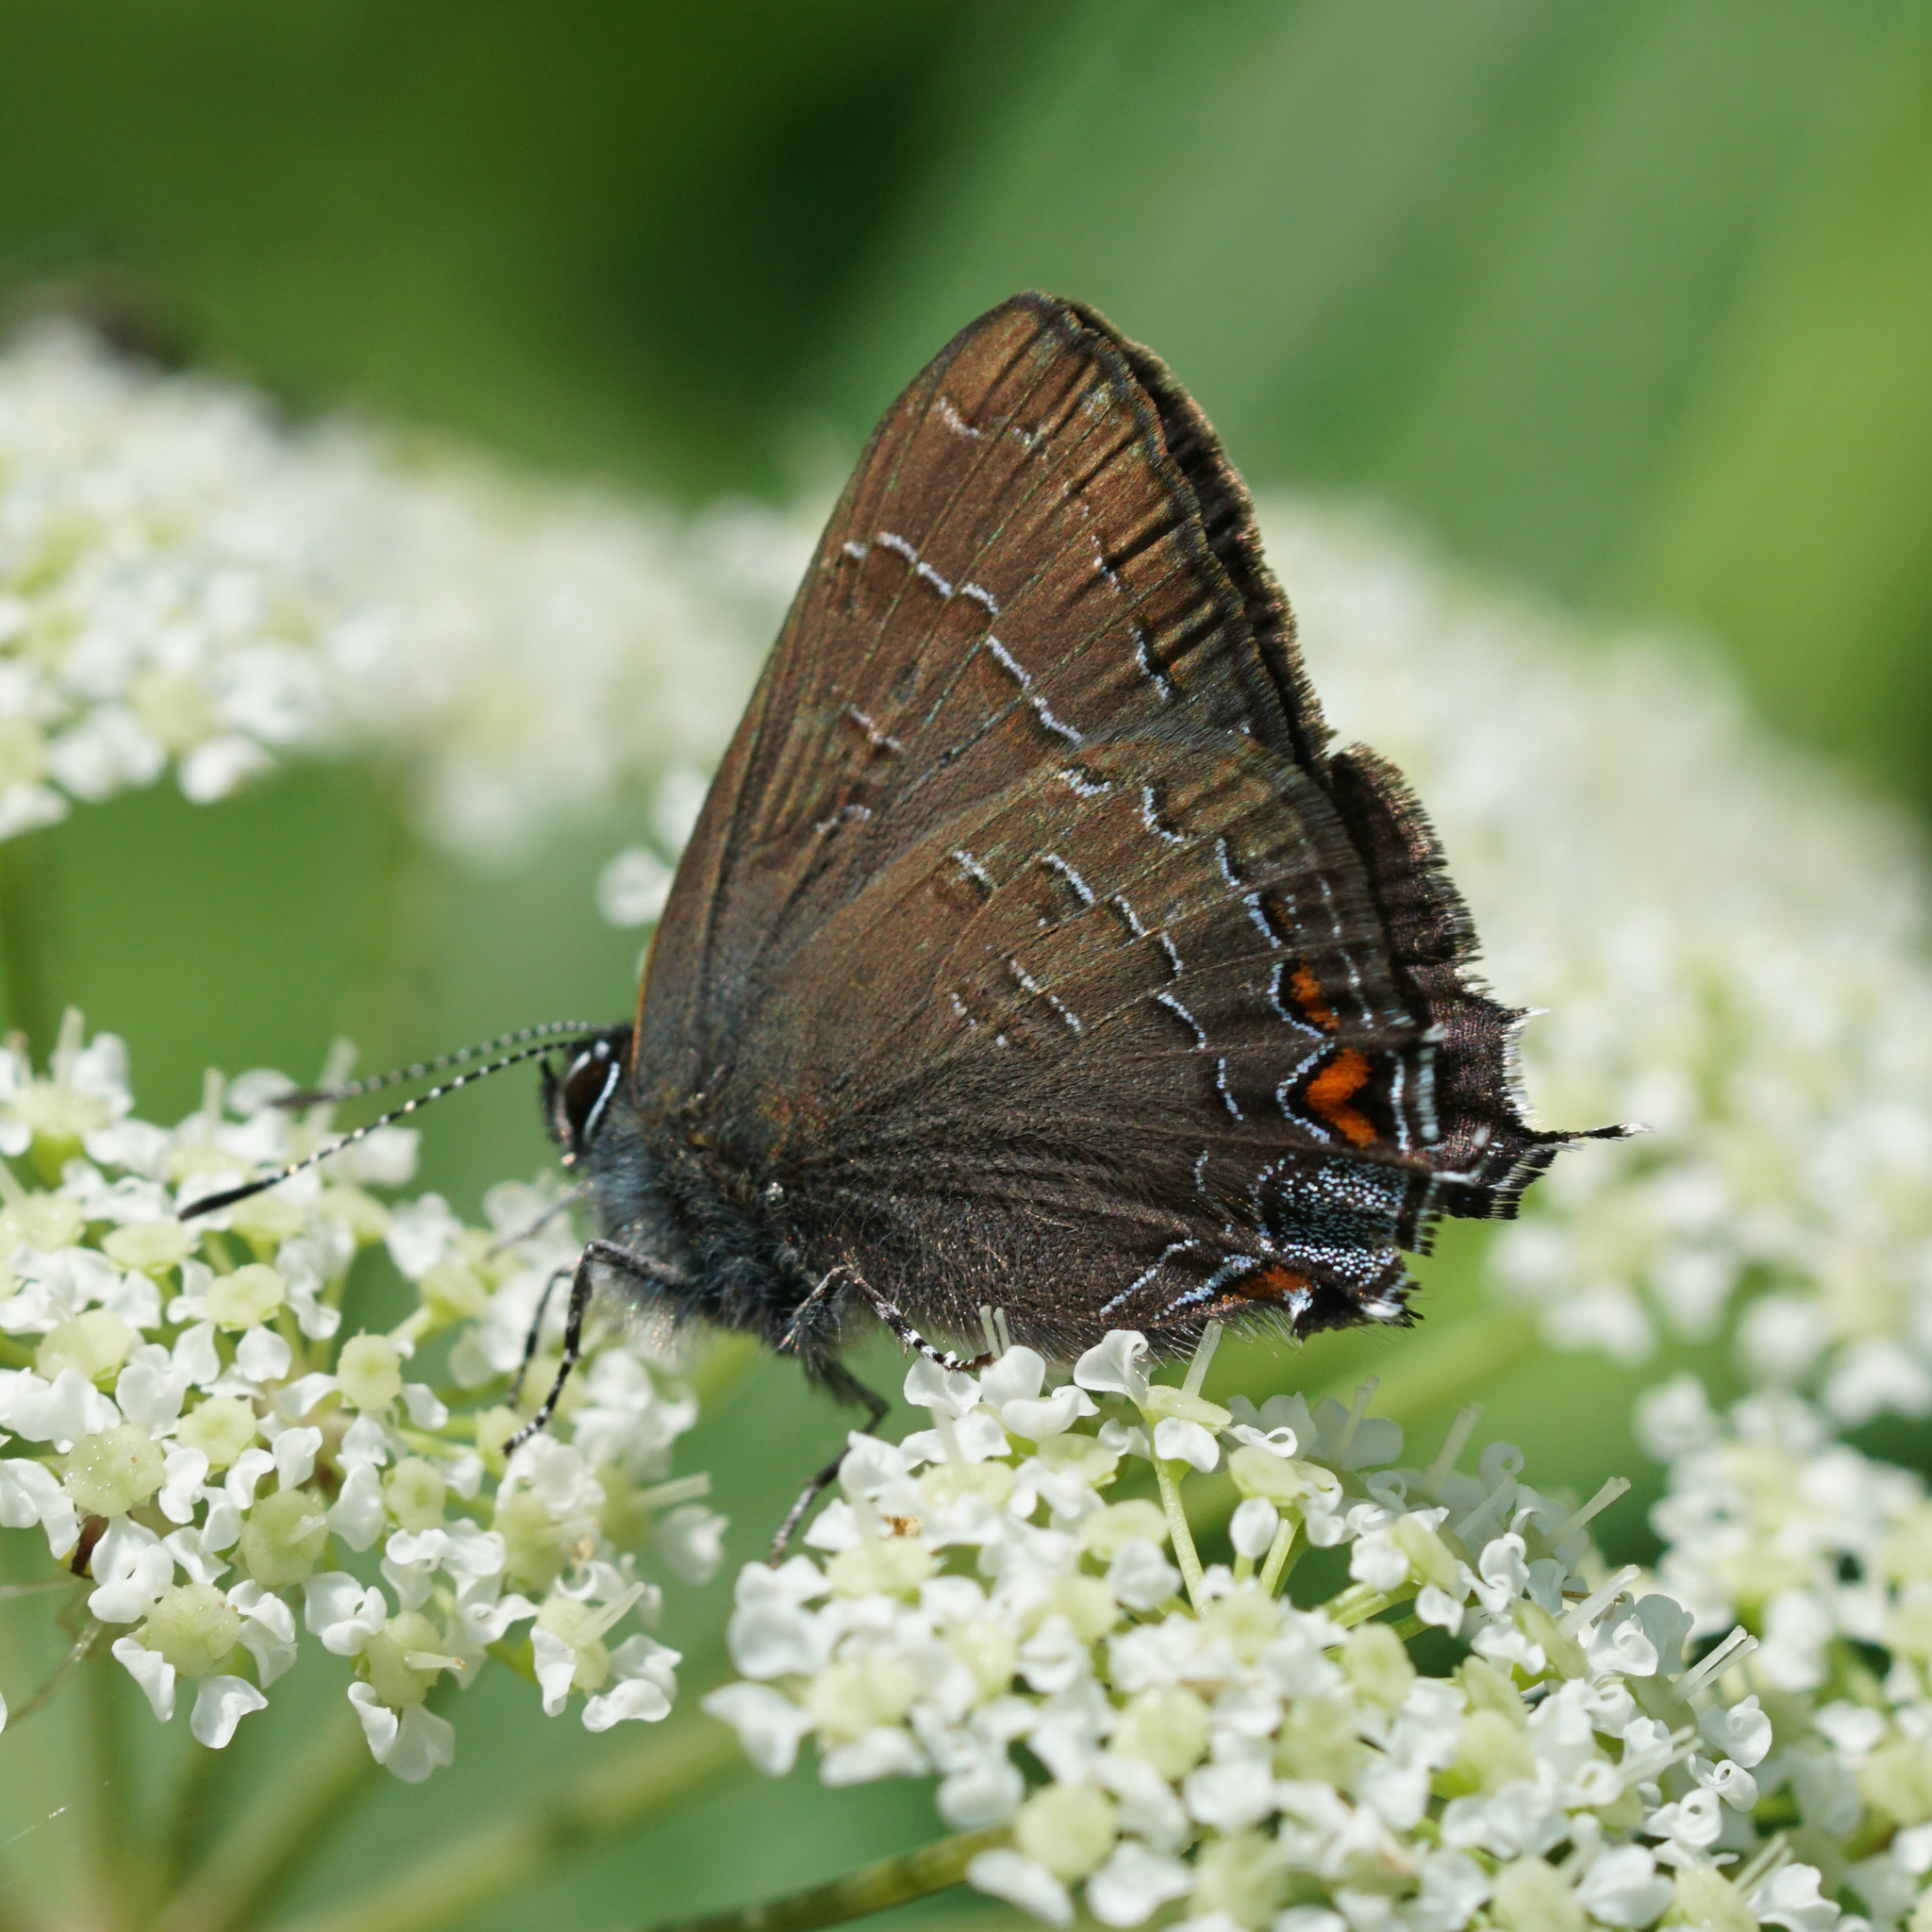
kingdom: Animalia
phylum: Arthropoda
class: Insecta
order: Lepidoptera
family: Lycaenidae
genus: Satyrium
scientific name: Satyrium calanus
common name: Banded hairstreak
